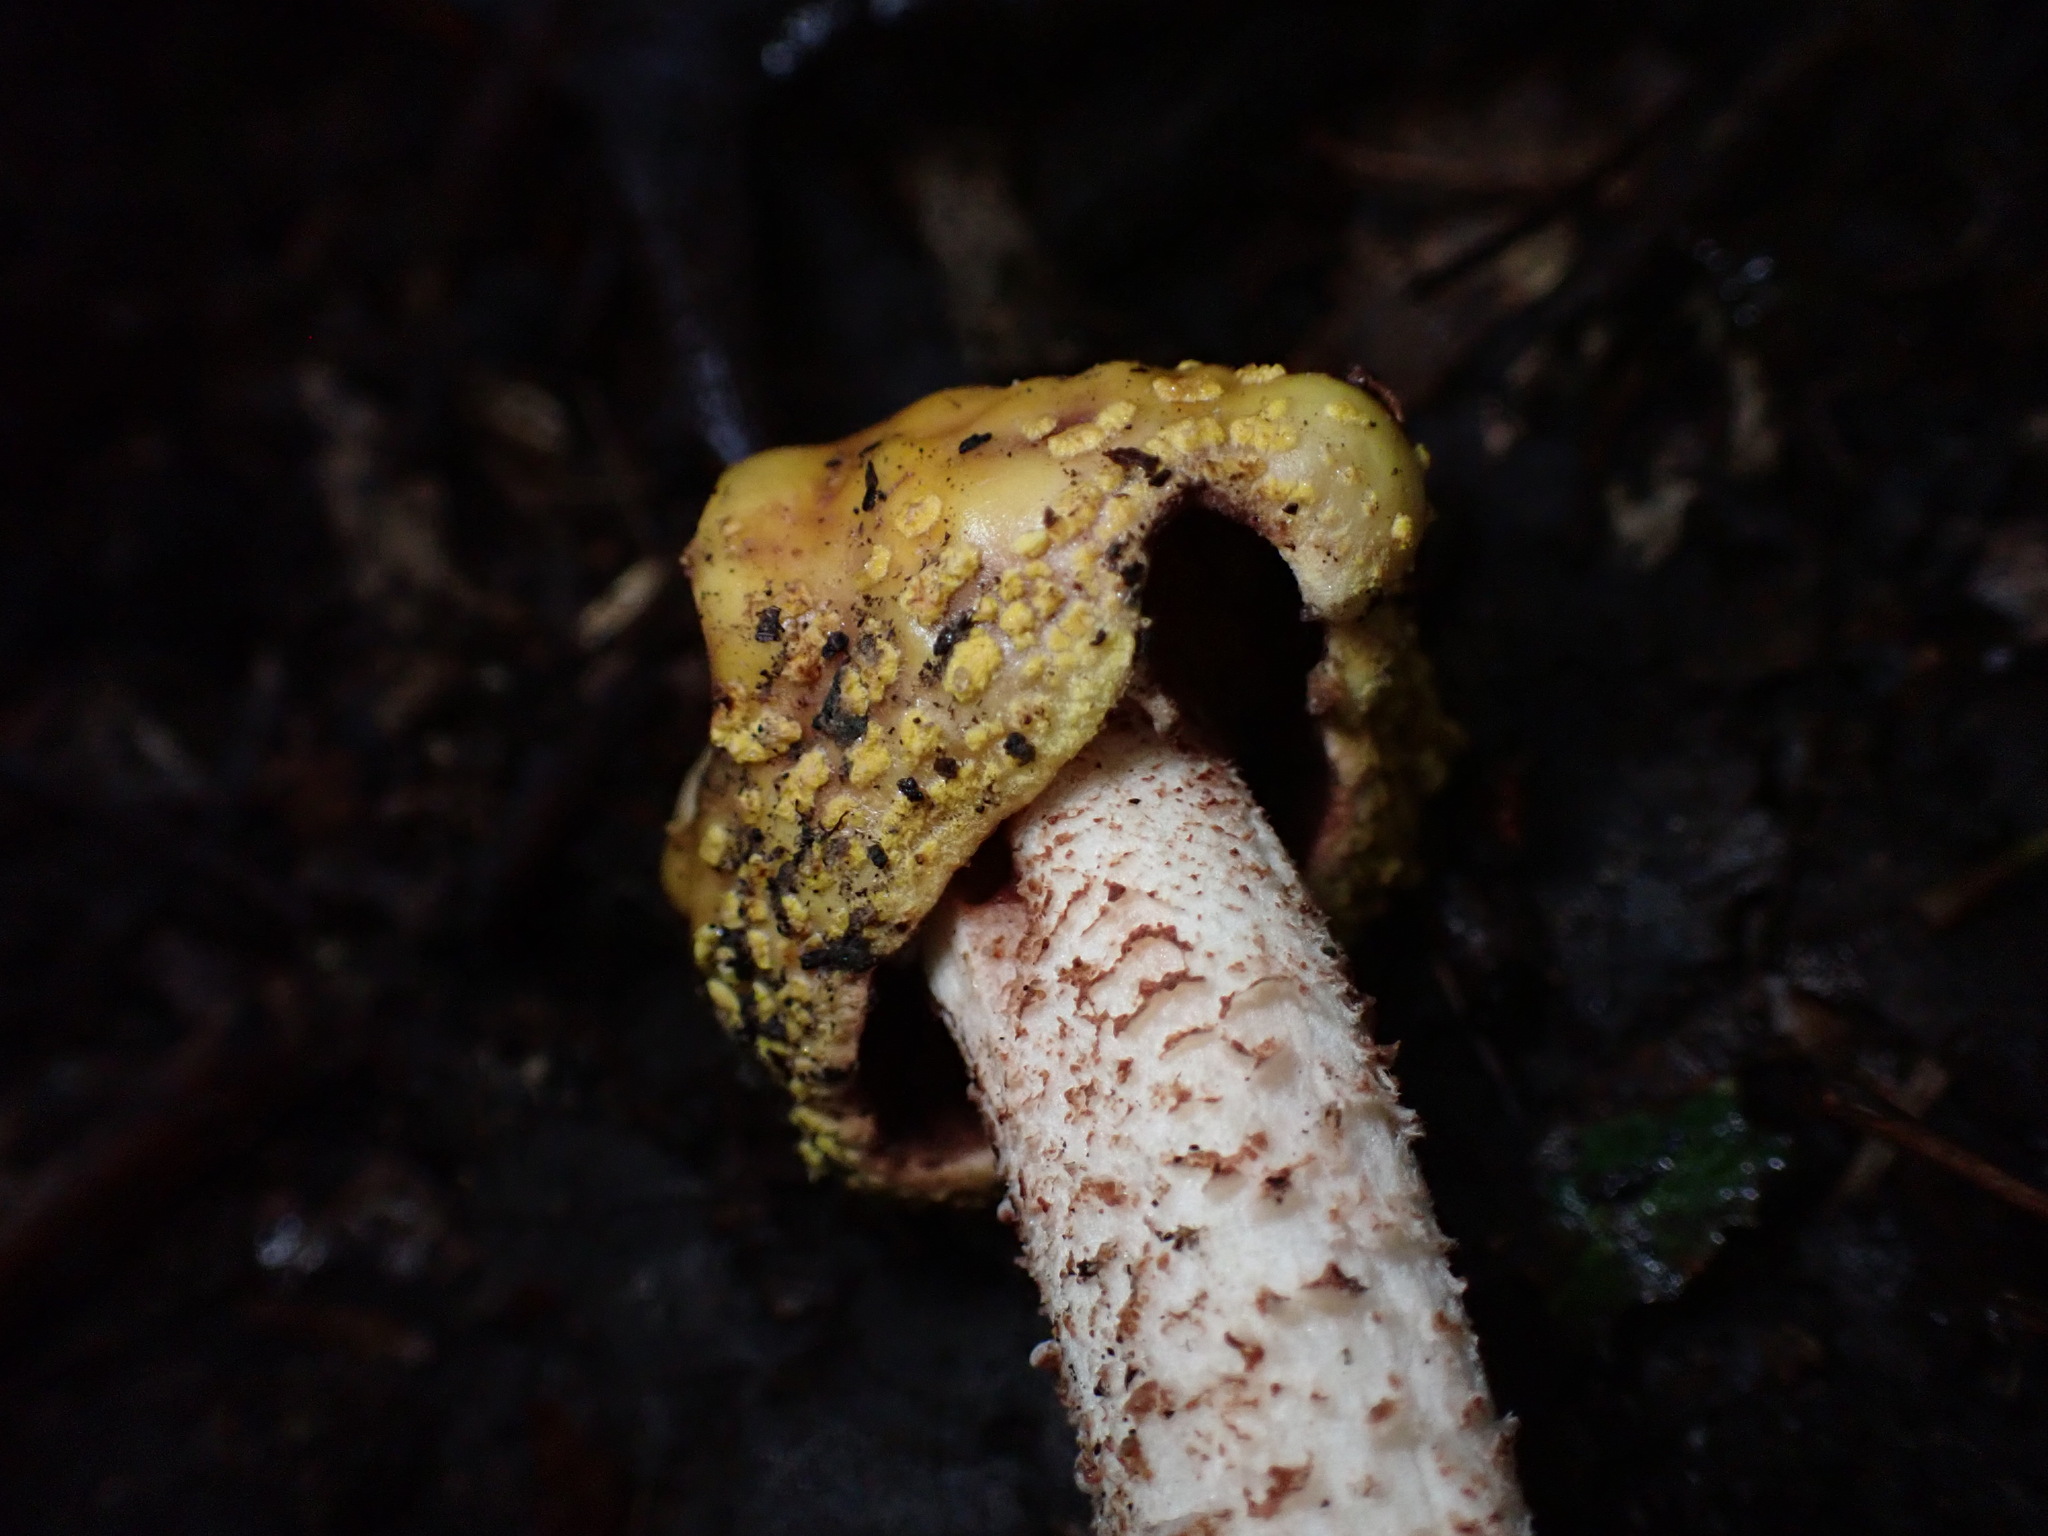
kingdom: Fungi
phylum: Basidiomycota
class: Agaricomycetes
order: Agaricales
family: Amanitaceae
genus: Amanita
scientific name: Amanita flavorubens
